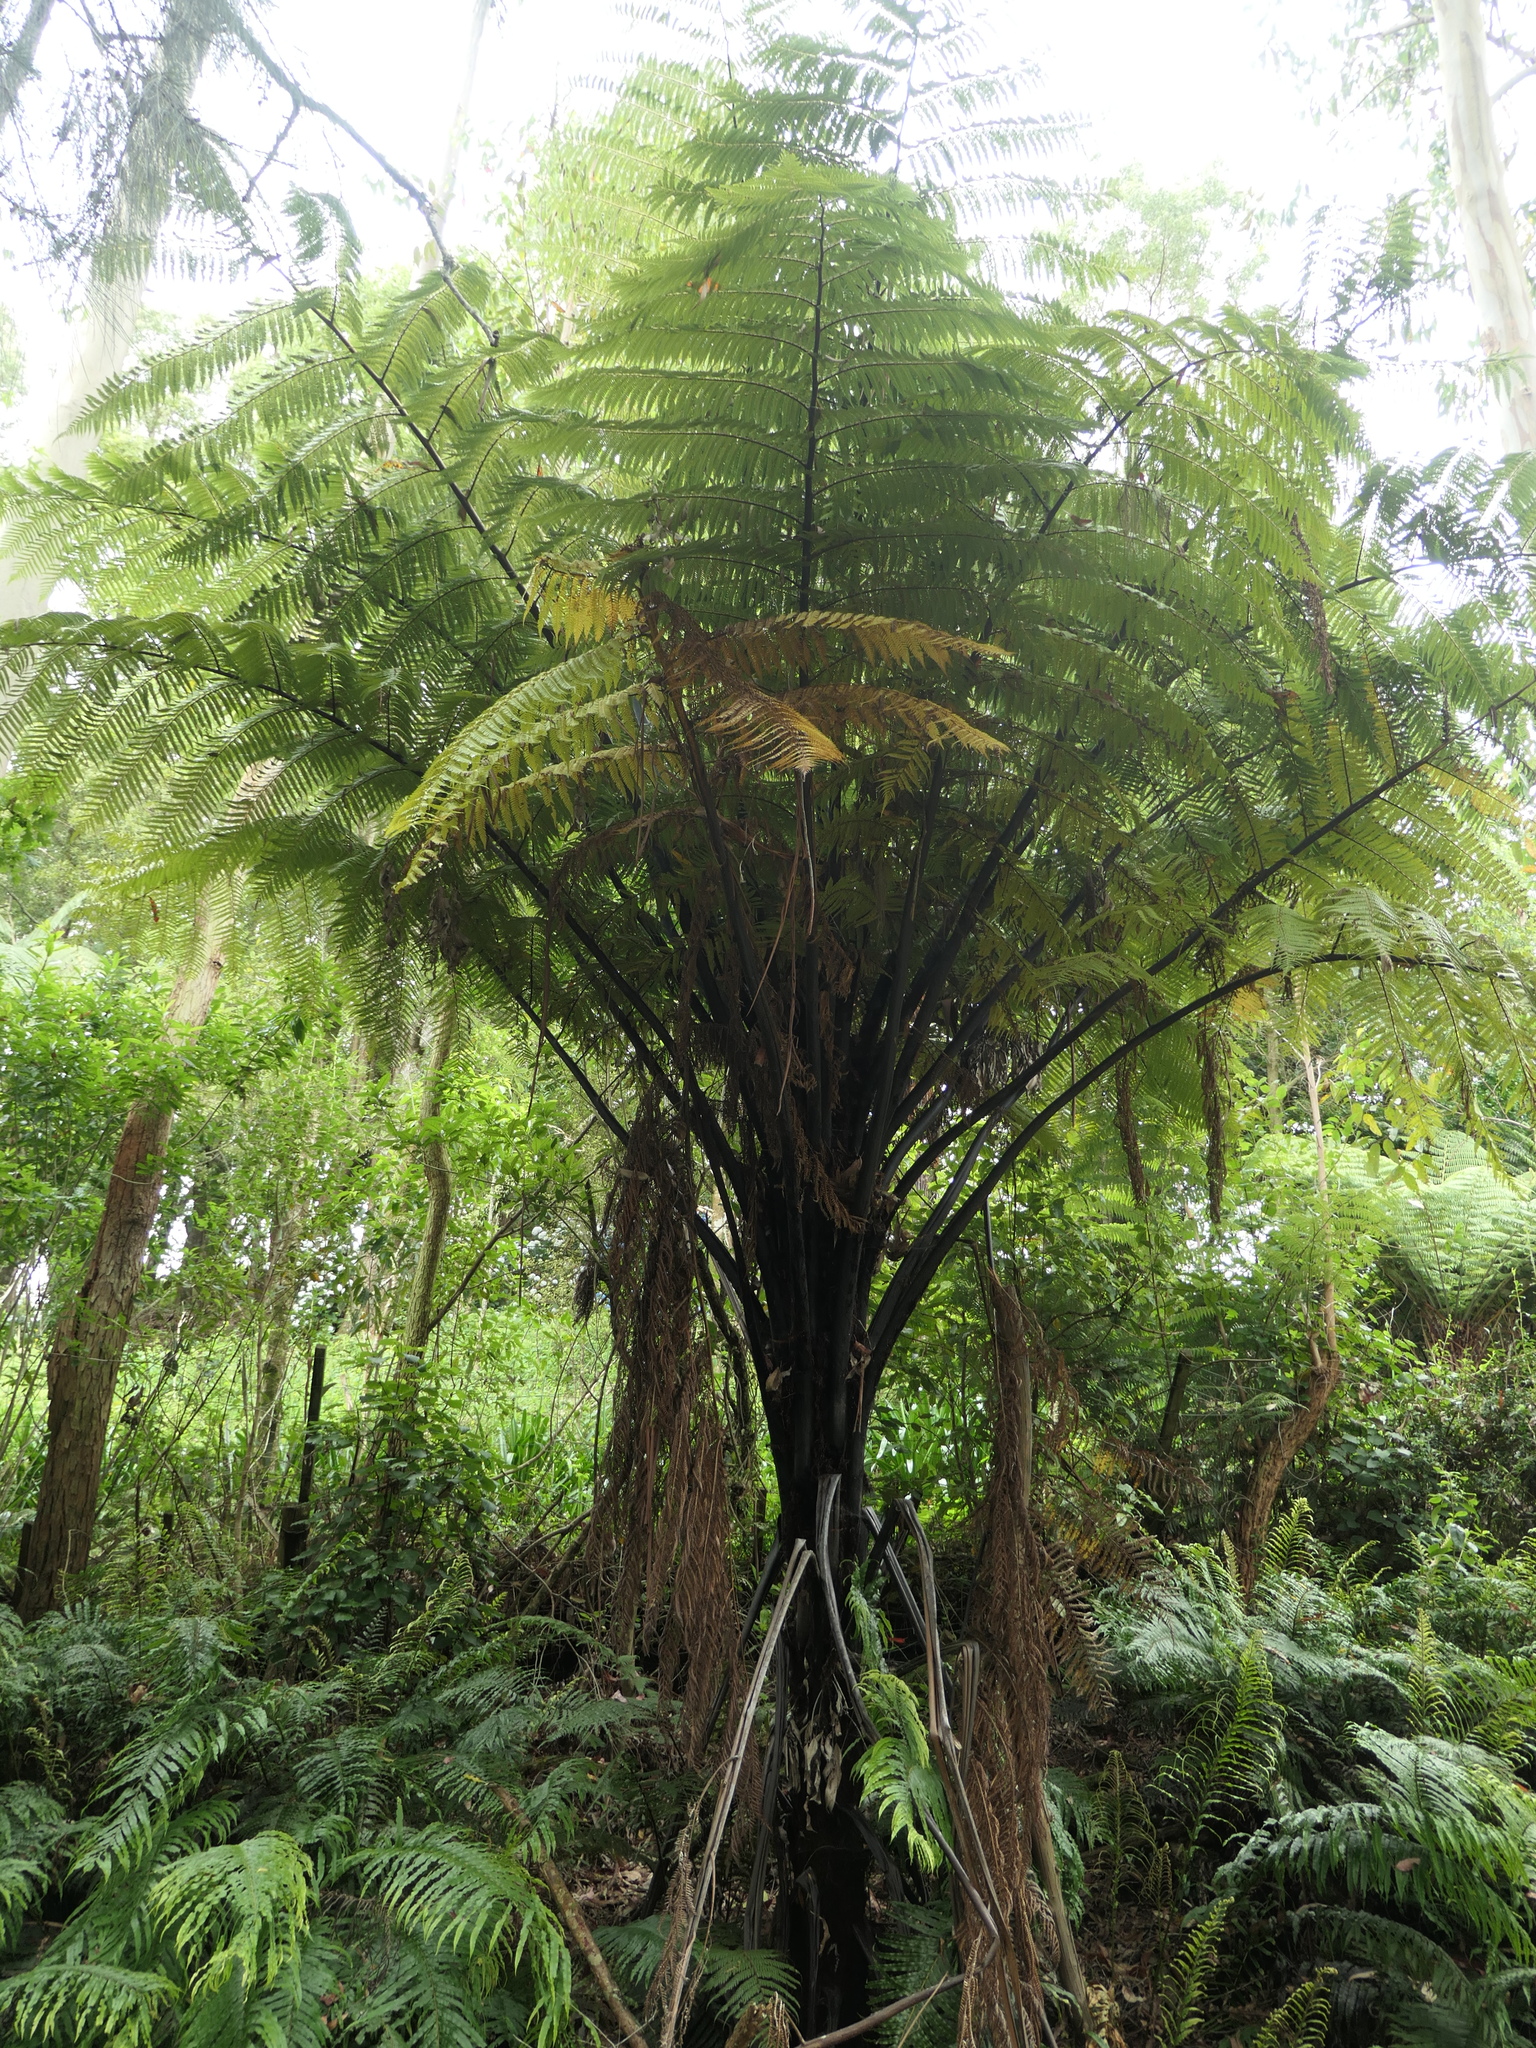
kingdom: Plantae
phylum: Tracheophyta
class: Polypodiopsida
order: Cyatheales
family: Cyatheaceae
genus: Sphaeropteris
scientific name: Sphaeropteris medullaris
